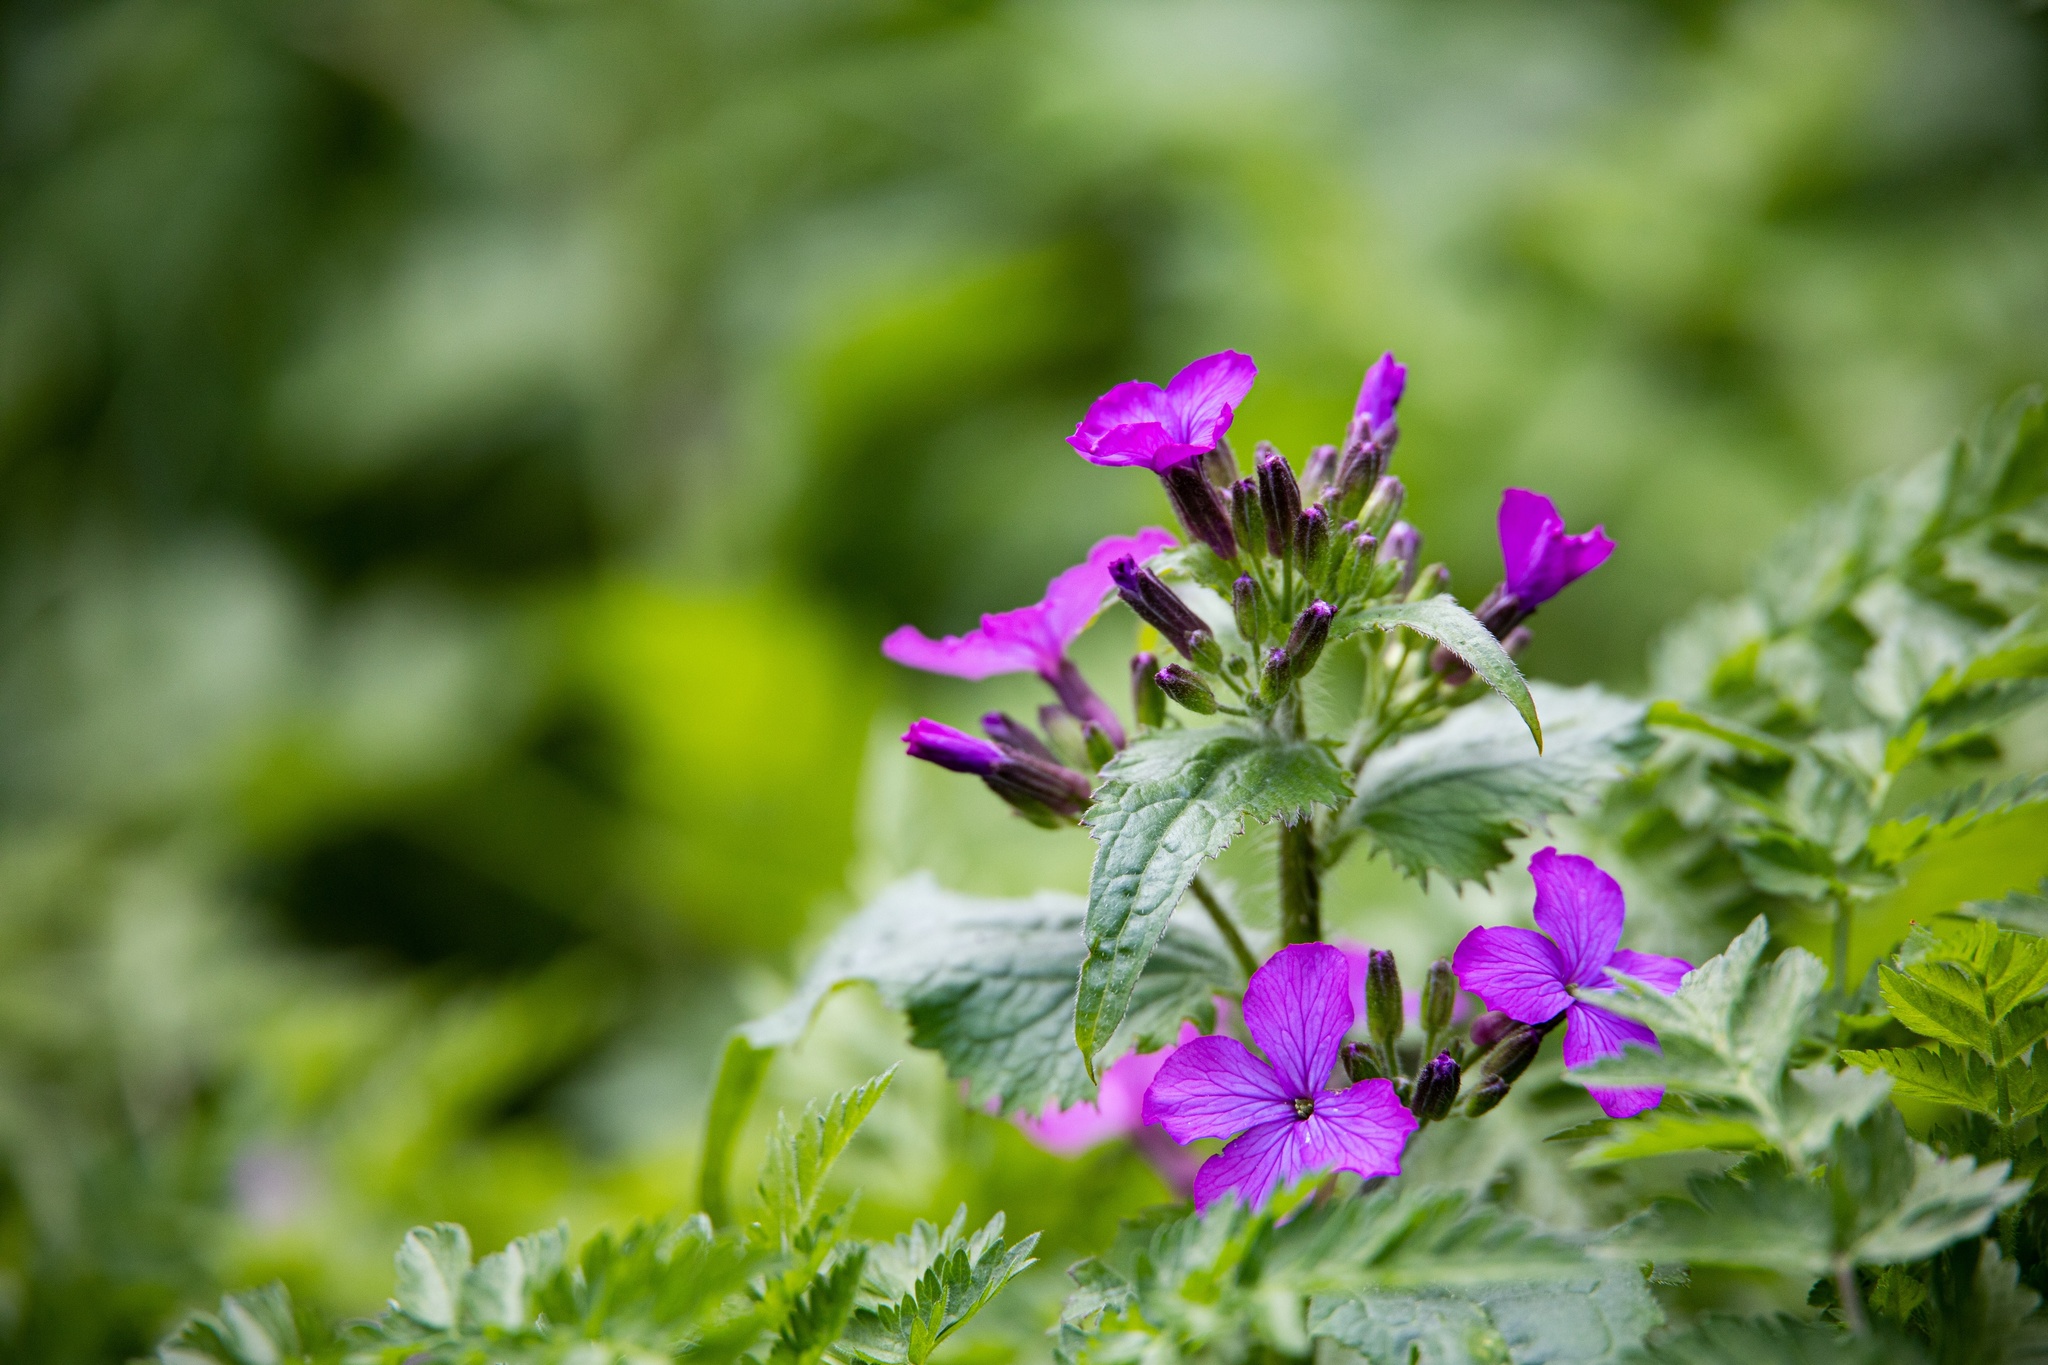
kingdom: Plantae
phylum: Tracheophyta
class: Magnoliopsida
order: Brassicales
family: Brassicaceae
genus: Lunaria
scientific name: Lunaria annua
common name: Honesty
